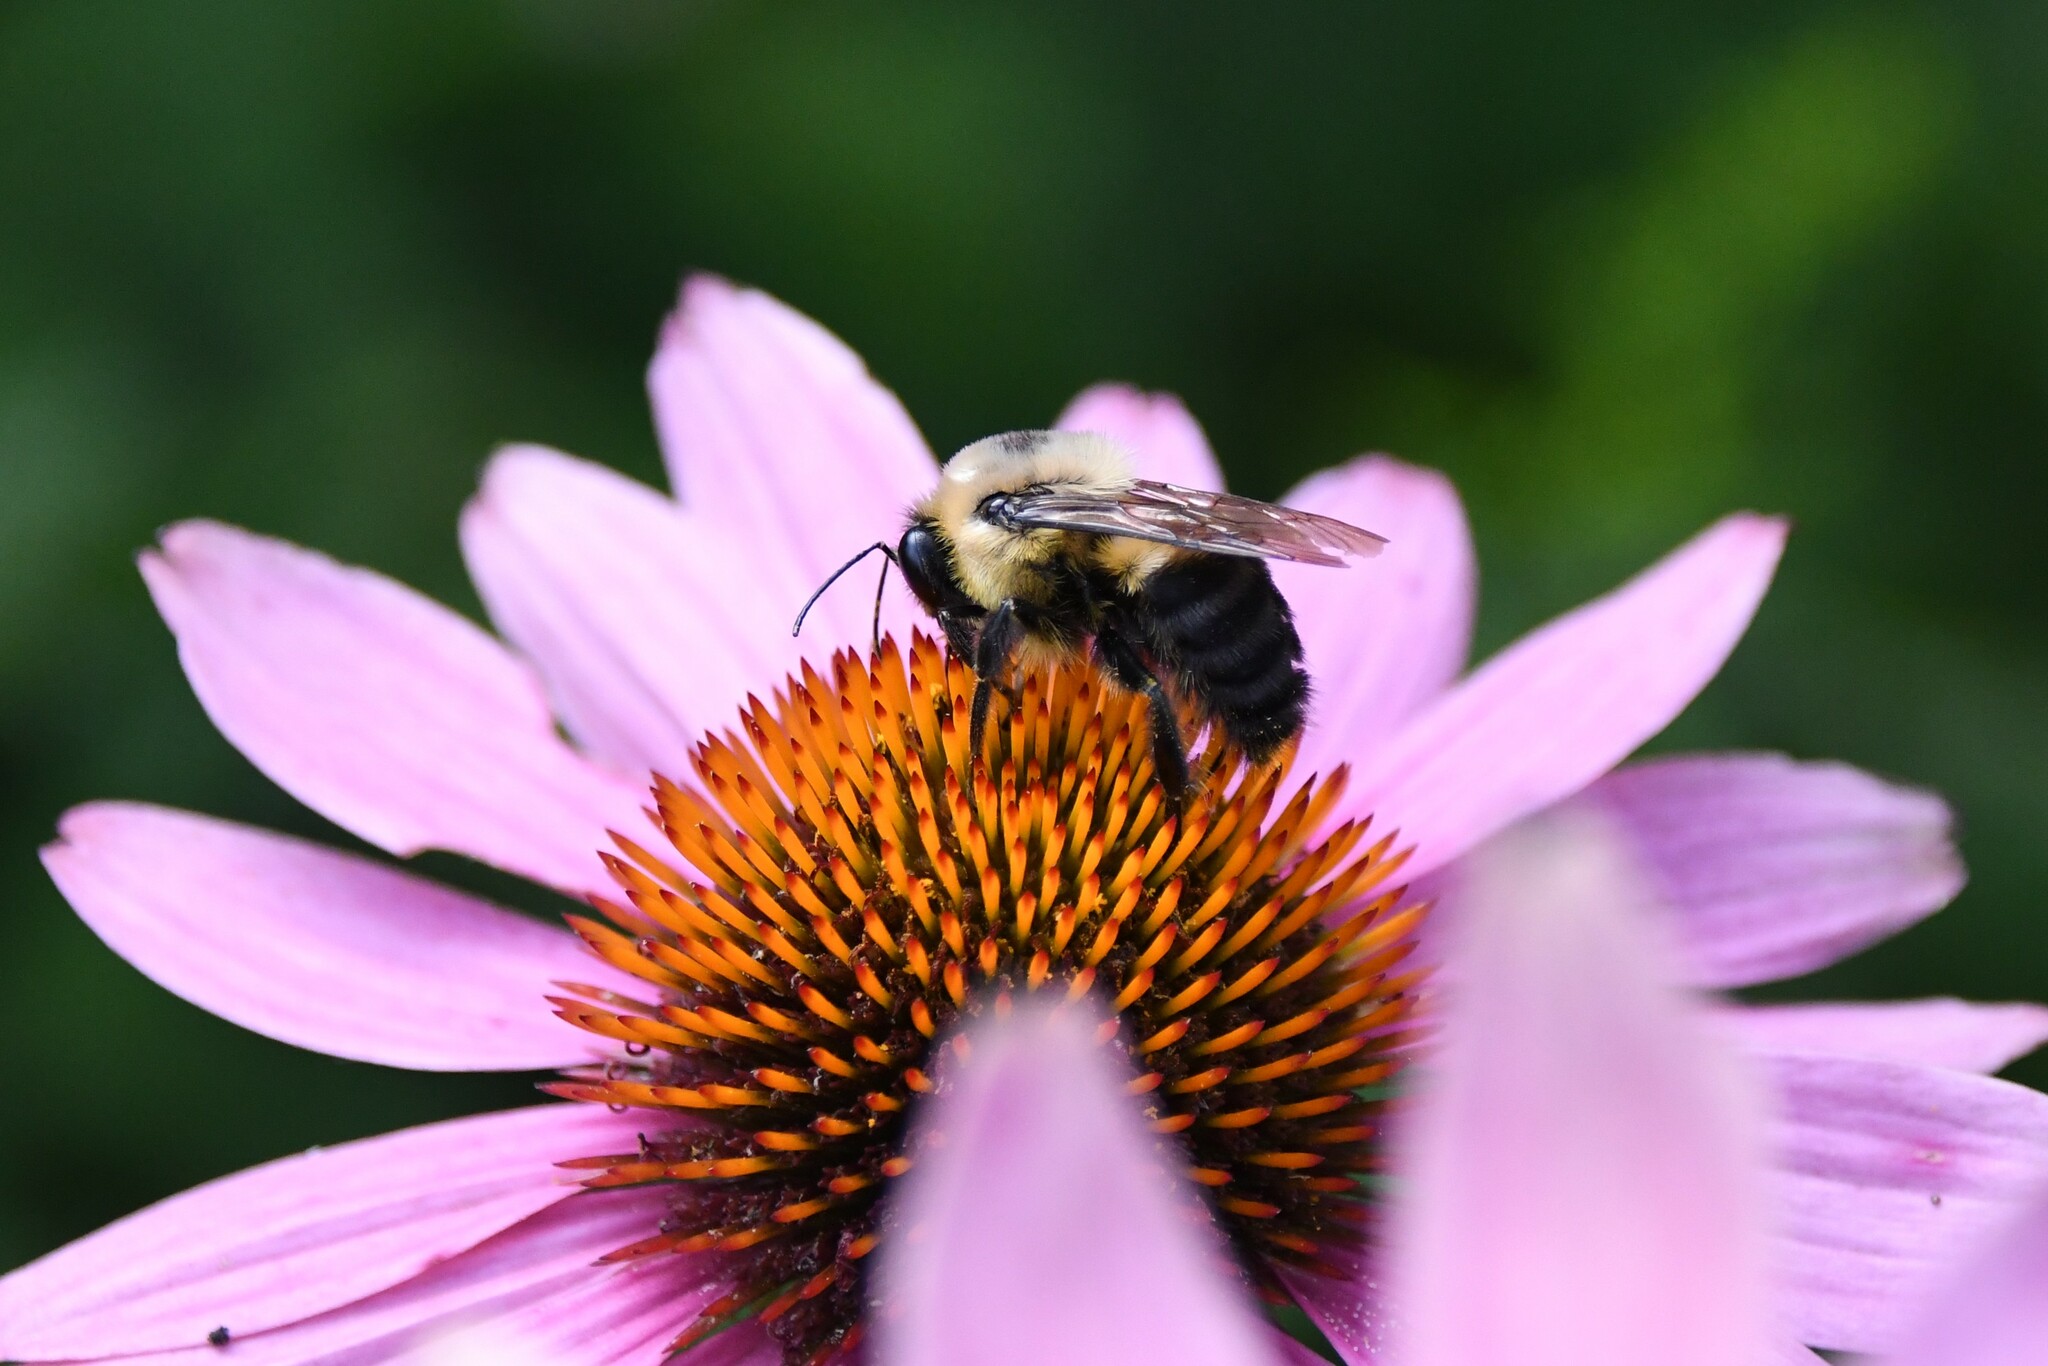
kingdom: Animalia
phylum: Arthropoda
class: Insecta
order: Hymenoptera
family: Apidae
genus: Bombus
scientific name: Bombus griseocollis
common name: Brown-belted bumble bee
